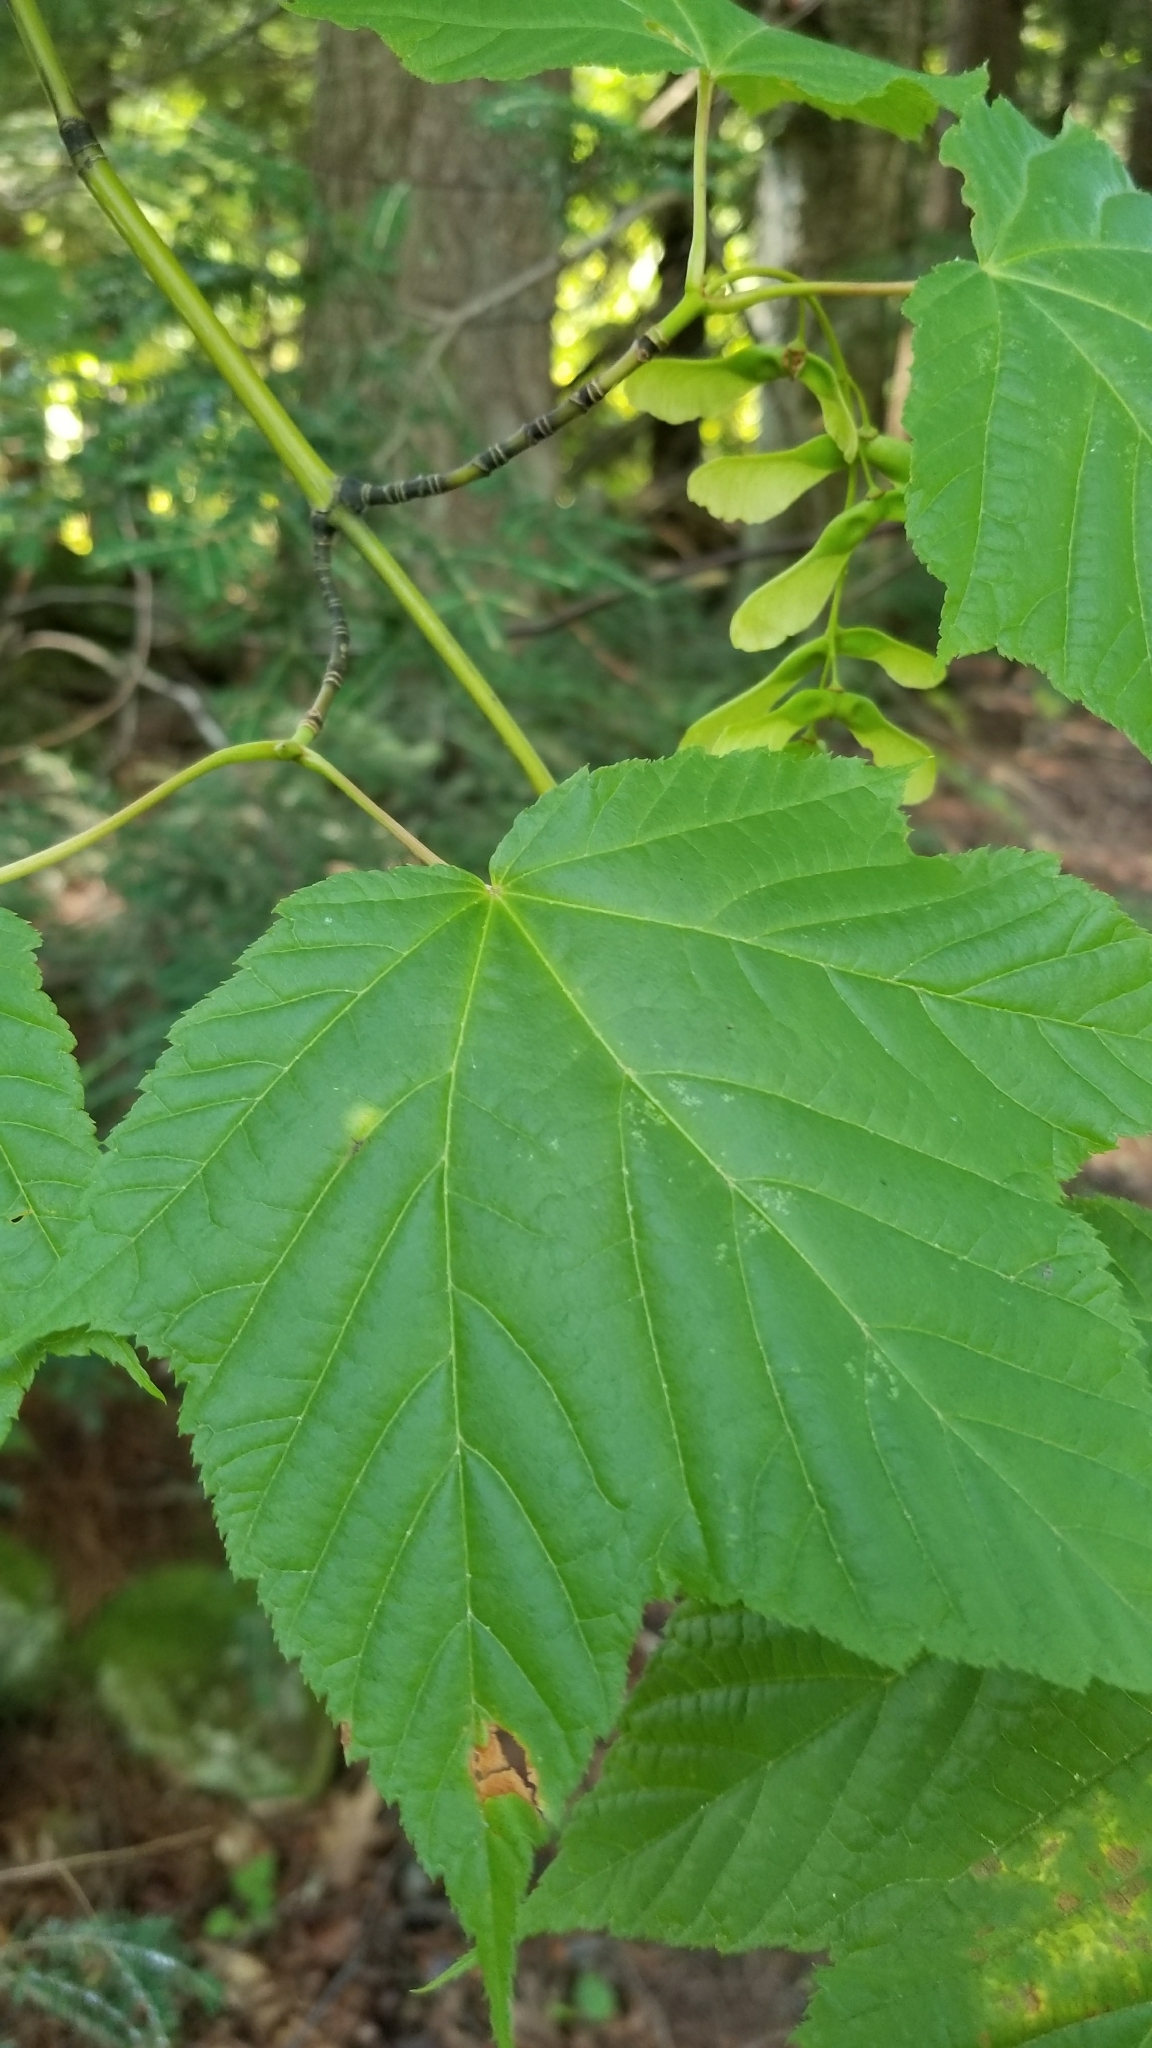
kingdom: Plantae
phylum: Tracheophyta
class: Magnoliopsida
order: Sapindales
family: Sapindaceae
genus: Acer
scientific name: Acer pensylvanicum
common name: Moosewood
